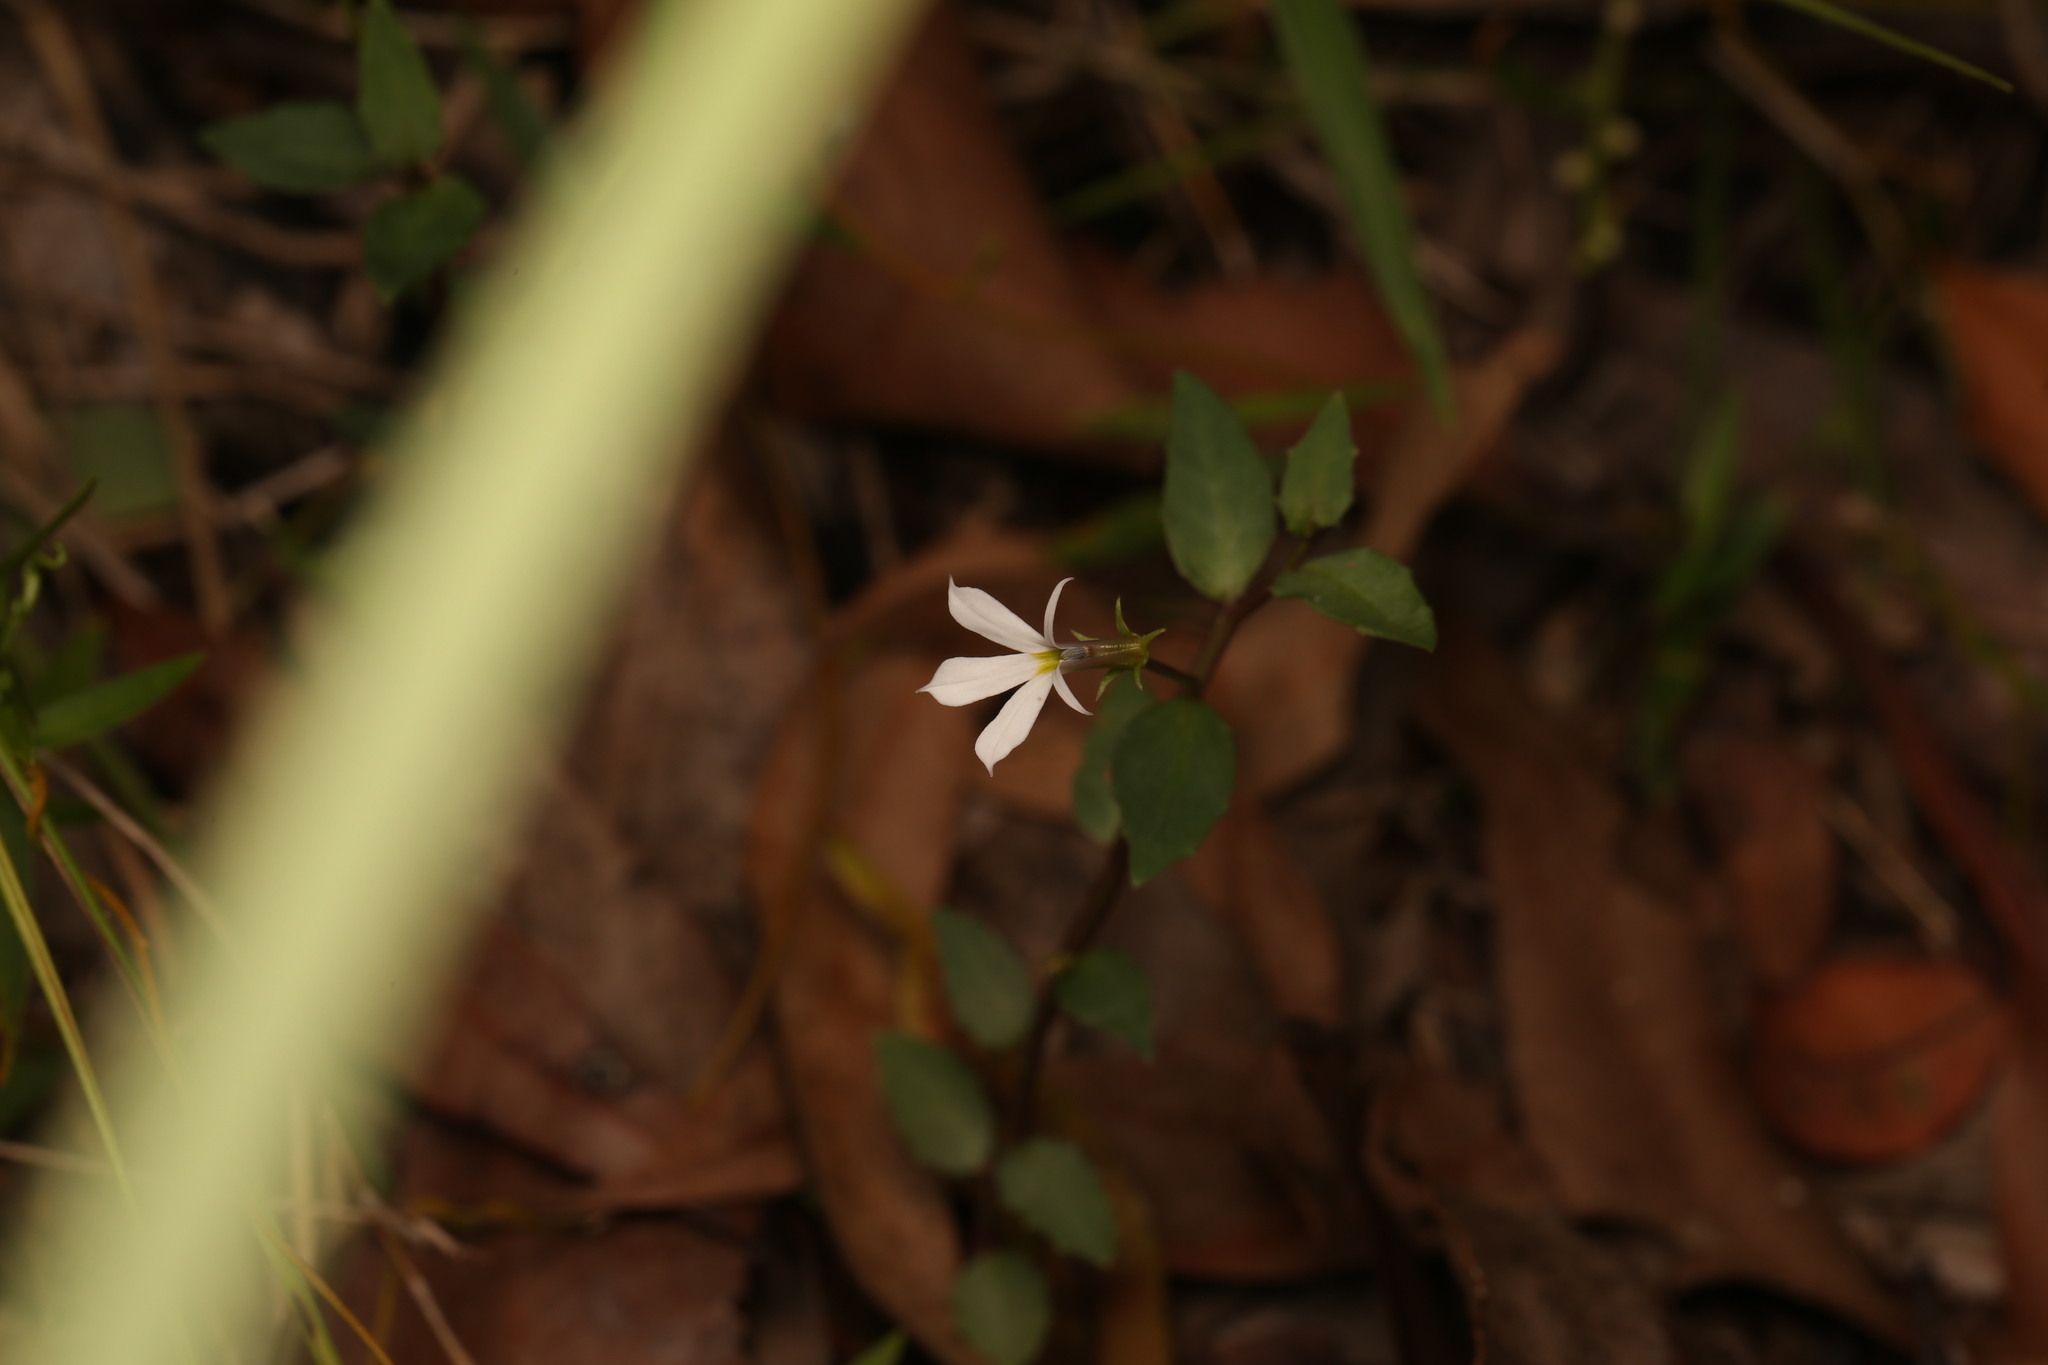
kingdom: Plantae
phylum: Tracheophyta
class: Magnoliopsida
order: Asterales
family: Campanulaceae
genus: Lobelia
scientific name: Lobelia purpurascens
